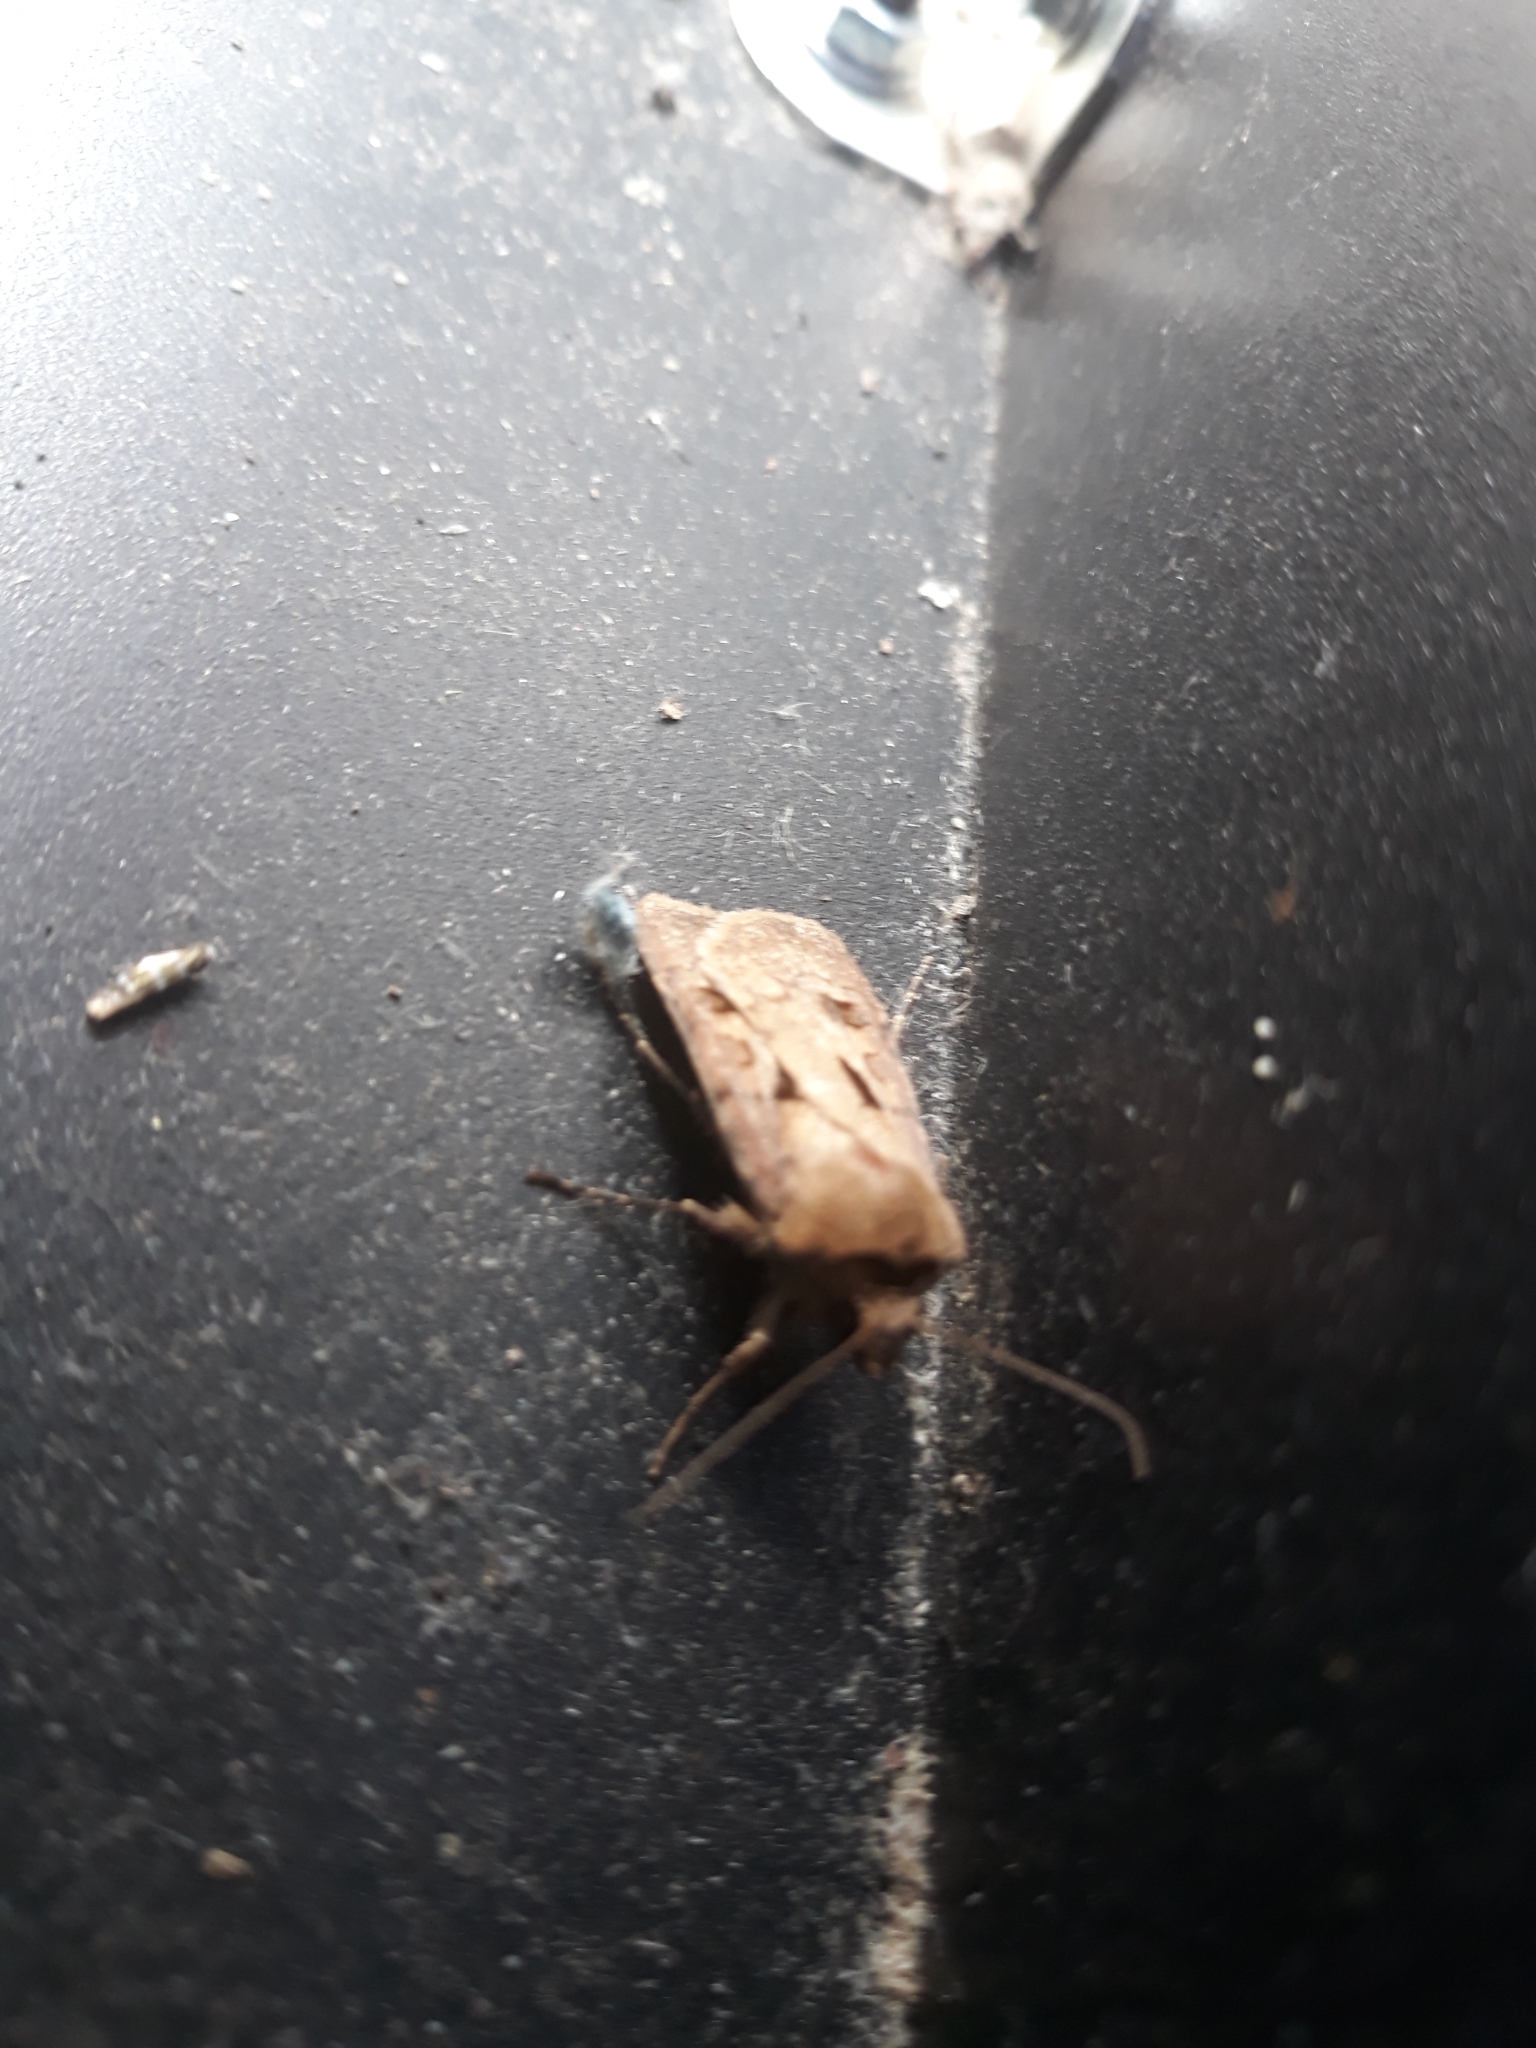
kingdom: Animalia
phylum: Arthropoda
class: Insecta
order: Lepidoptera
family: Noctuidae
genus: Agrotis
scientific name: Agrotis exclamationis
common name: Heart and dart
